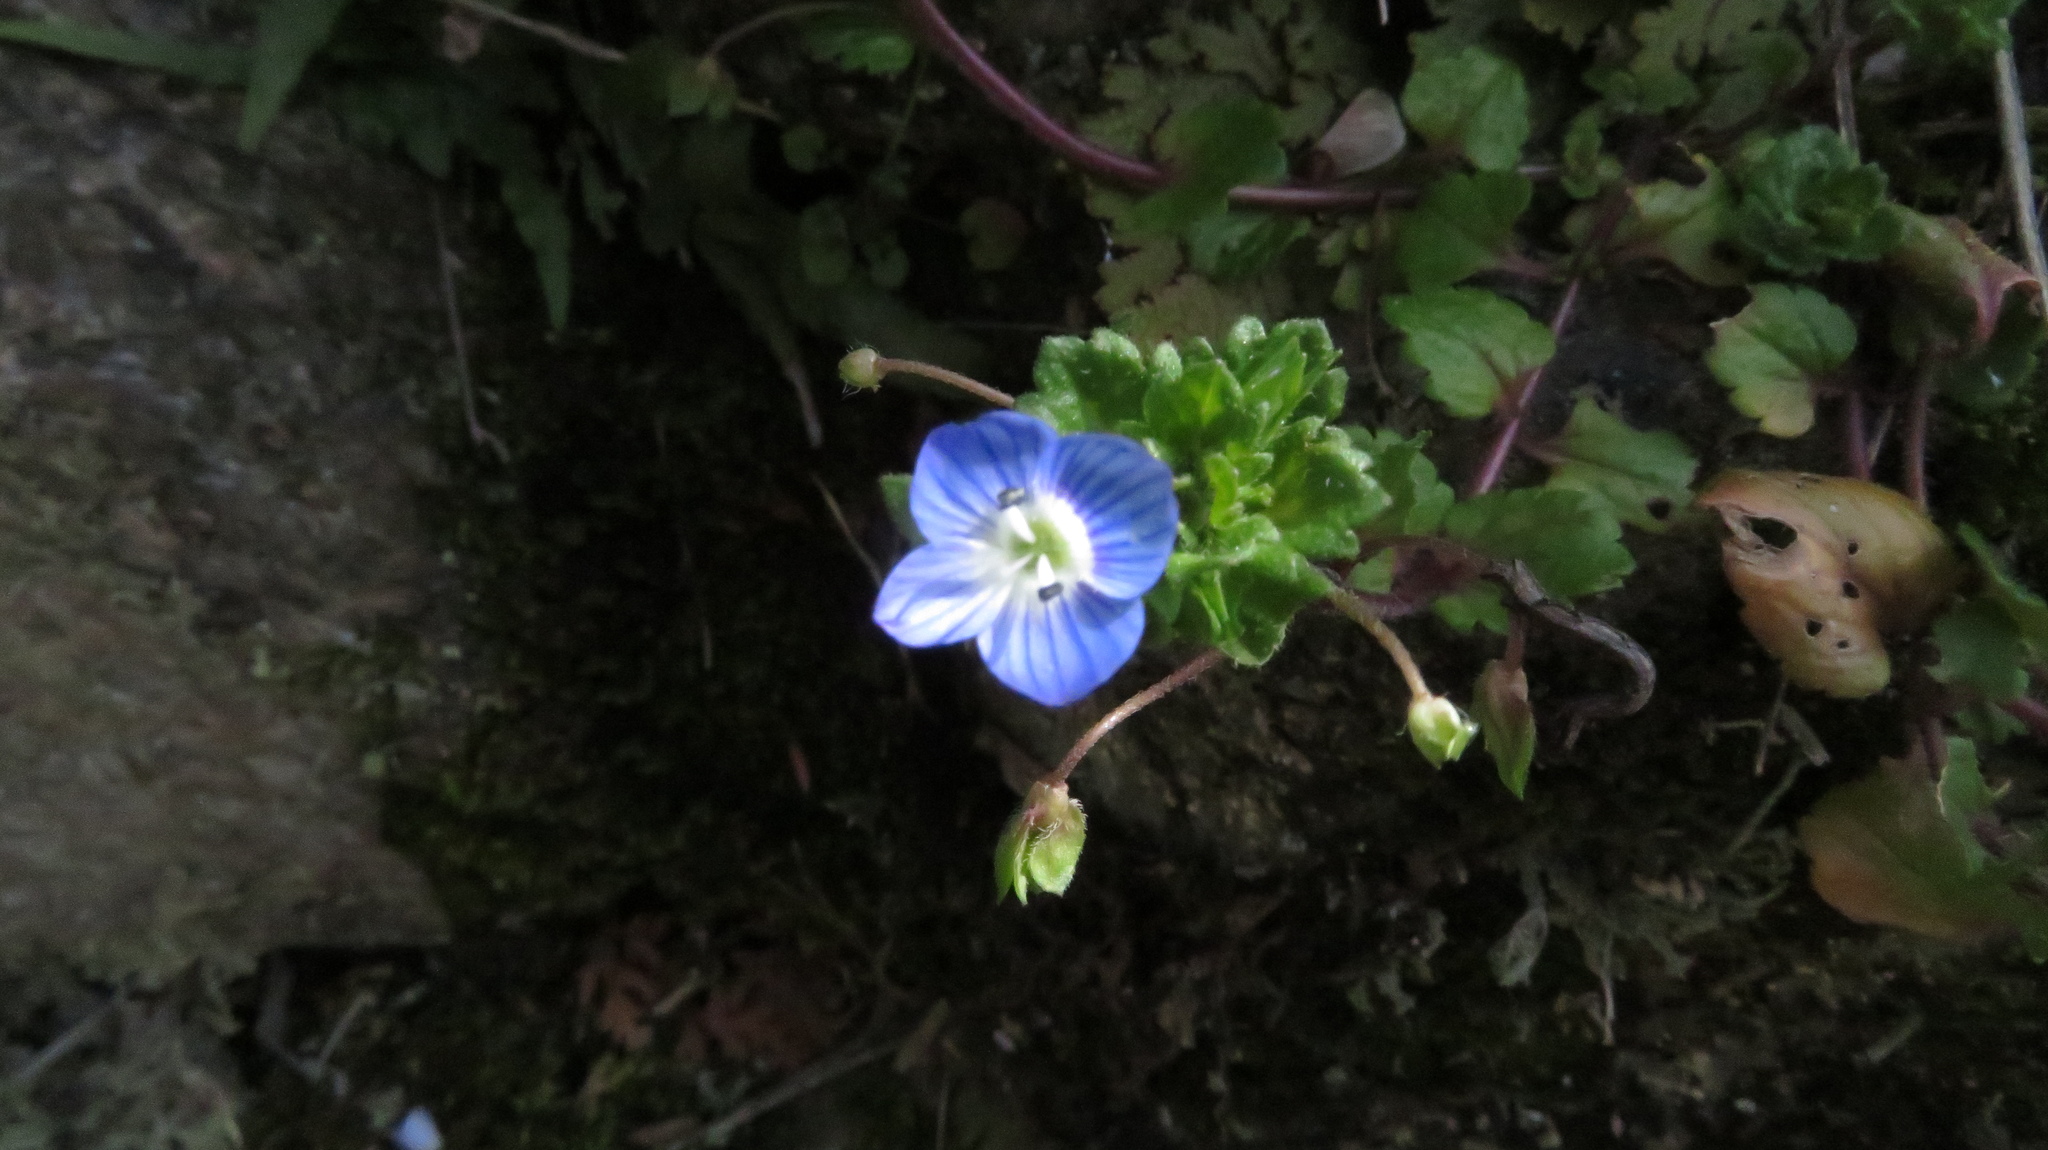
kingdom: Plantae
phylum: Tracheophyta
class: Magnoliopsida
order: Lamiales
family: Plantaginaceae
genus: Veronica
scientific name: Veronica persica
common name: Common field-speedwell
